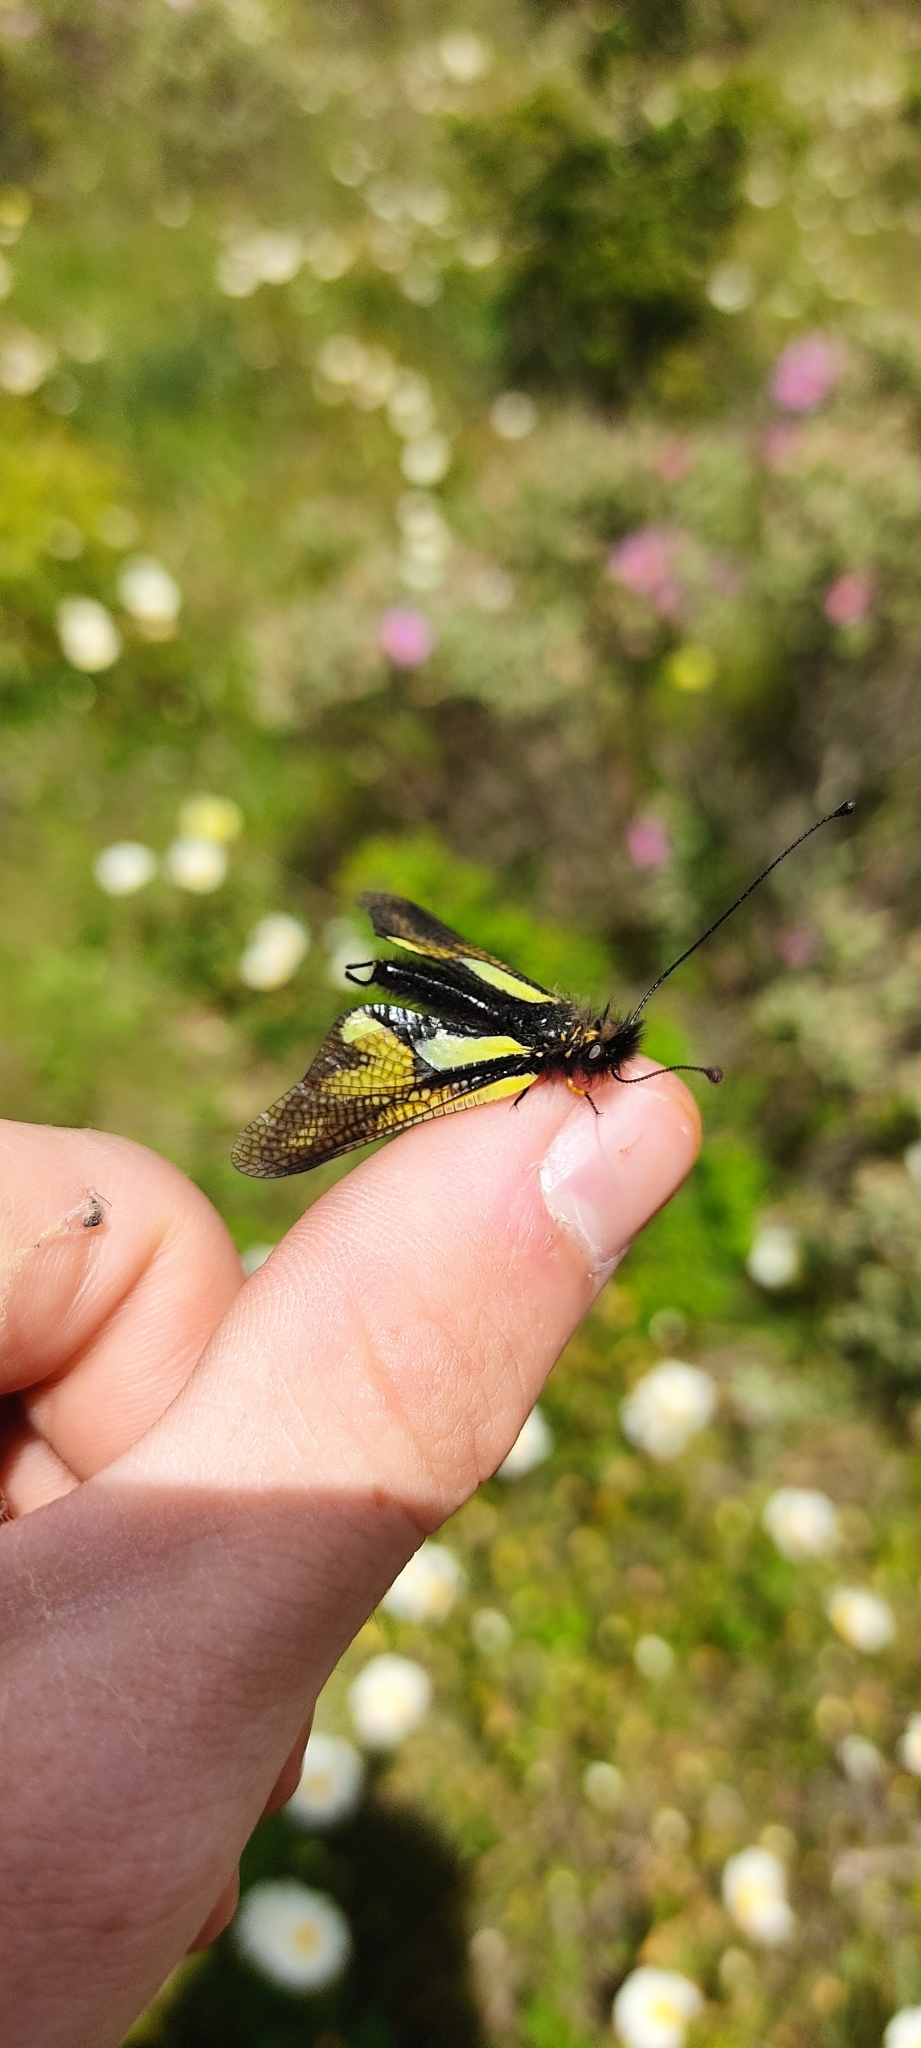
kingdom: Animalia
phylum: Arthropoda
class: Insecta
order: Neuroptera
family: Ascalaphidae
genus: Libelloides
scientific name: Libelloides coccajus
